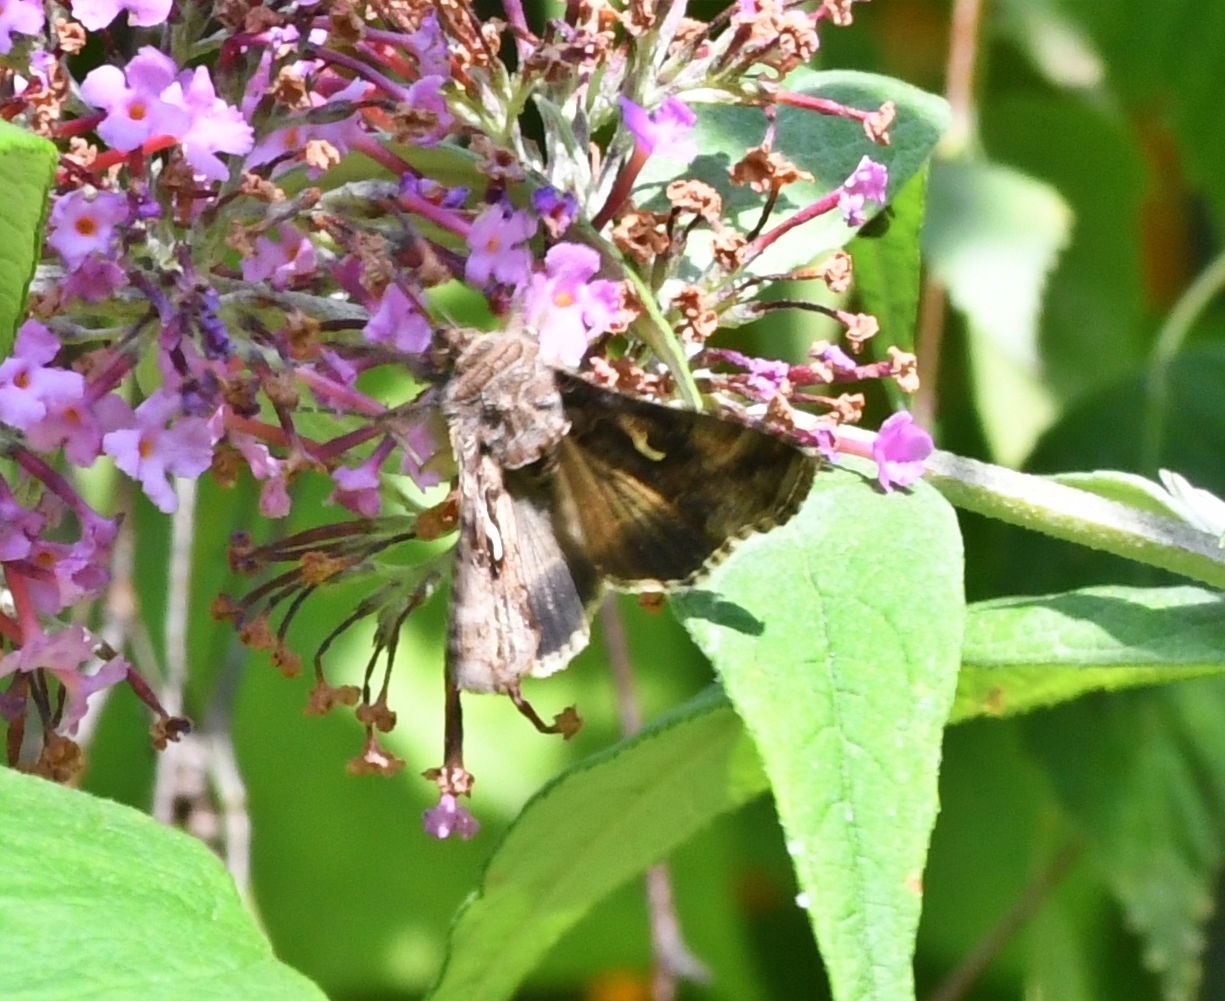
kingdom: Animalia
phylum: Arthropoda
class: Insecta
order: Lepidoptera
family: Noctuidae
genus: Autographa
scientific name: Autographa gamma
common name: Silver y
